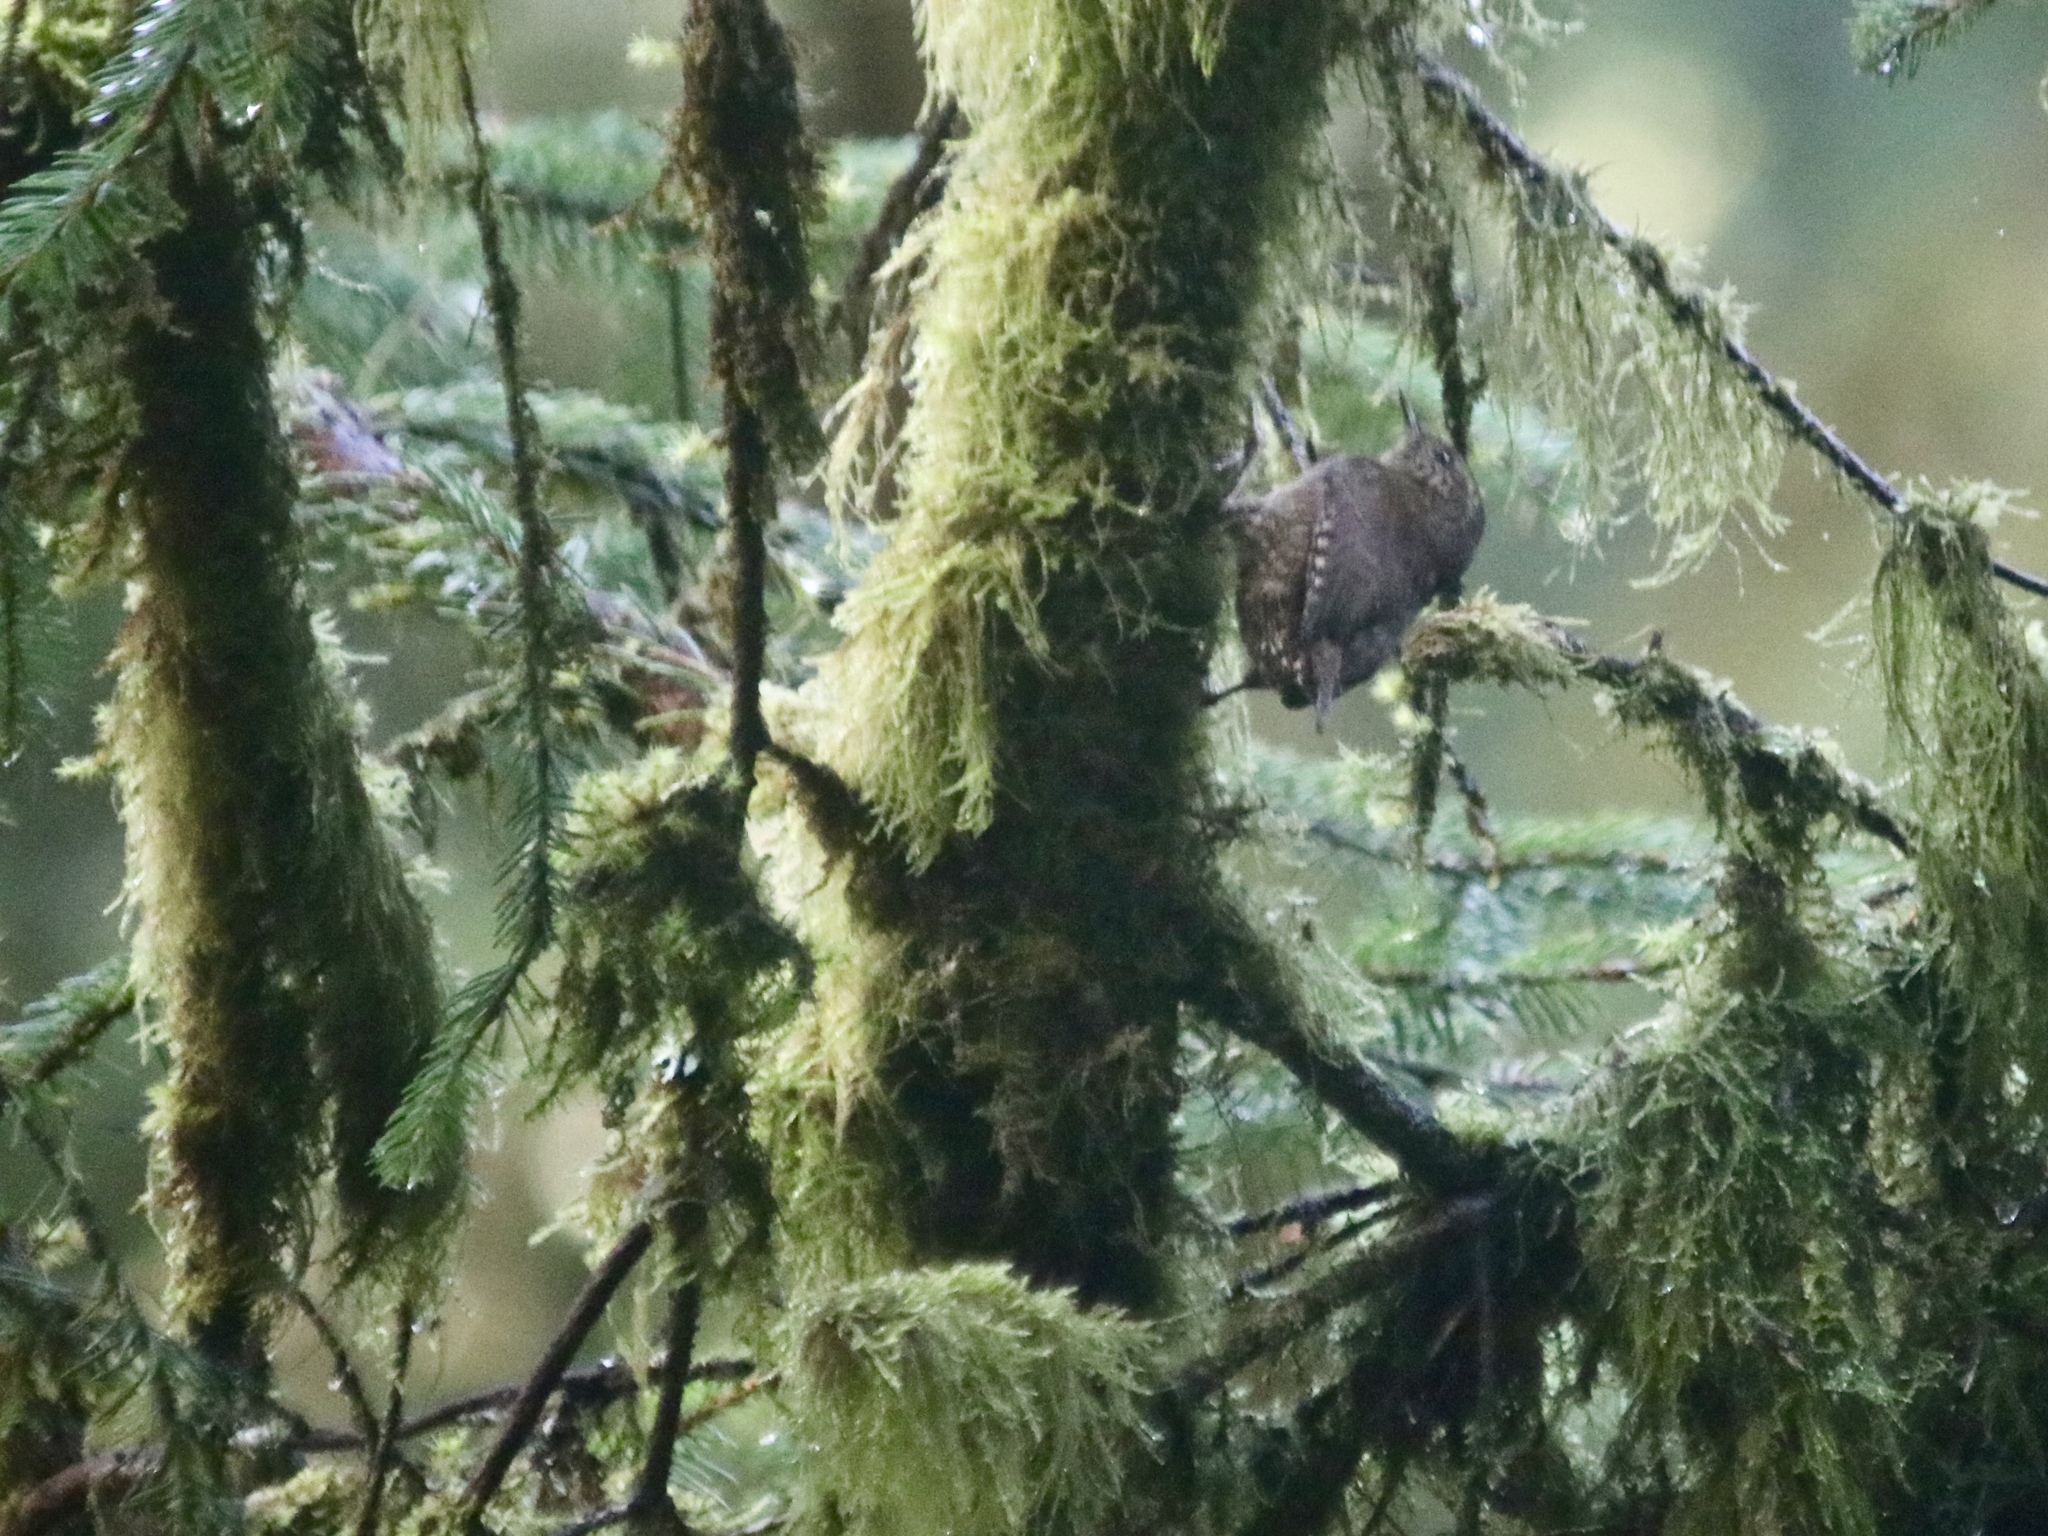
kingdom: Animalia
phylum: Chordata
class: Aves
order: Passeriformes
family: Troglodytidae
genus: Troglodytes
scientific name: Troglodytes pacificus
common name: Pacific wren
